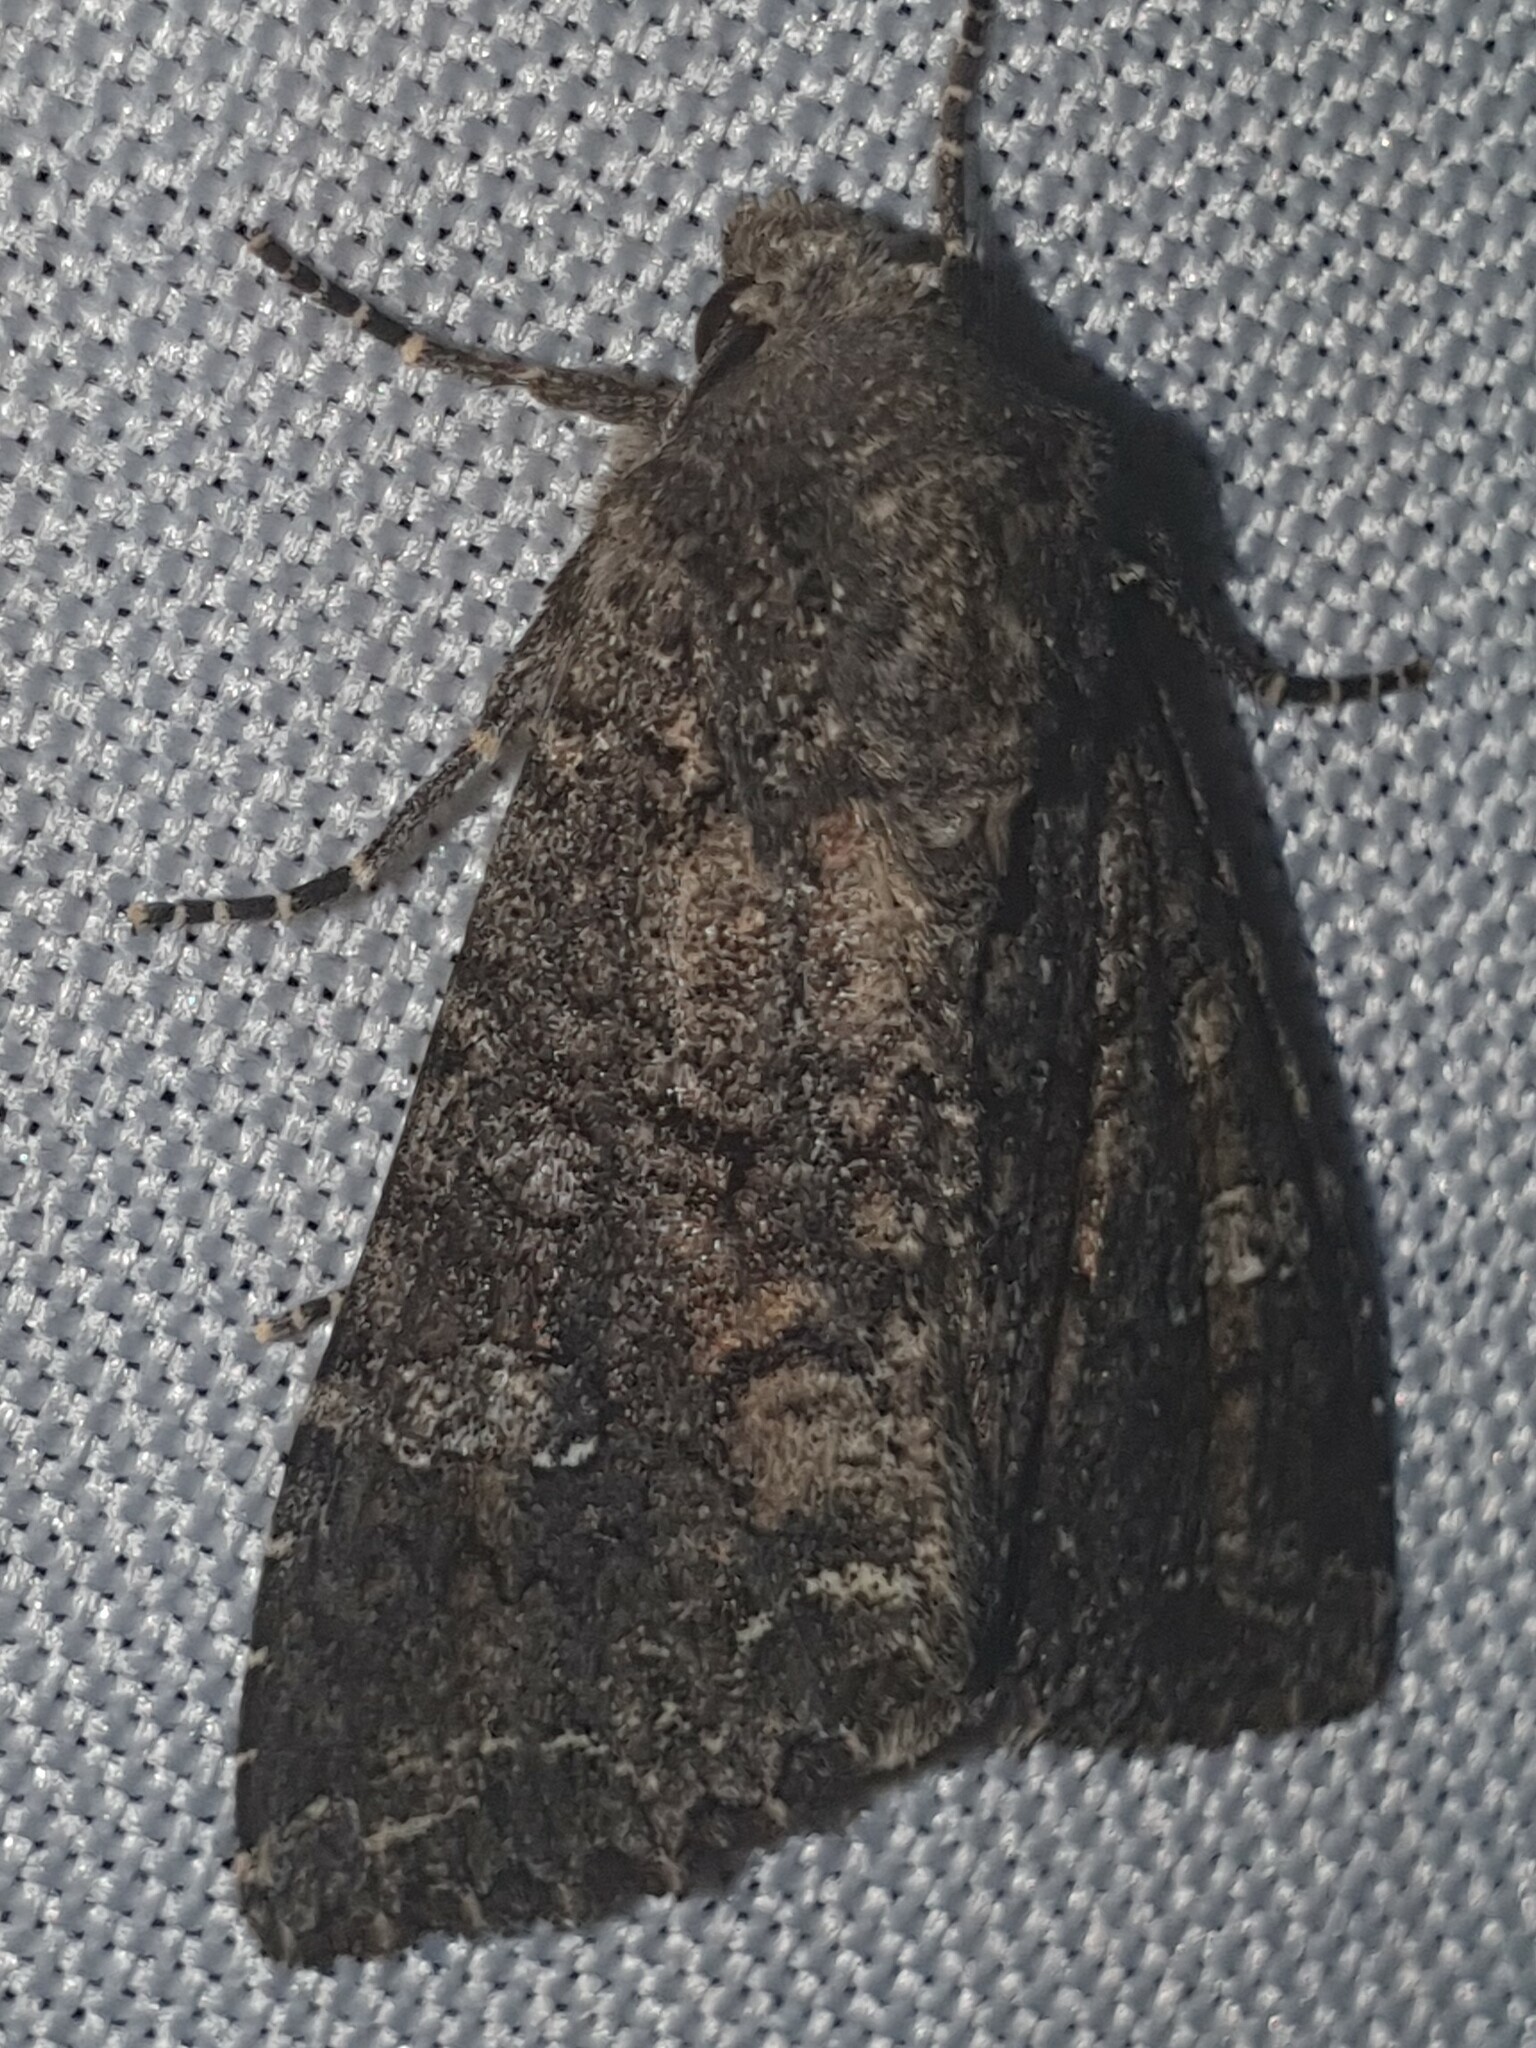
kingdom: Animalia
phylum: Arthropoda
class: Insecta
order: Lepidoptera
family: Noctuidae
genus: Mamestra
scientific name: Mamestra brassicae
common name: Cabbage moth
